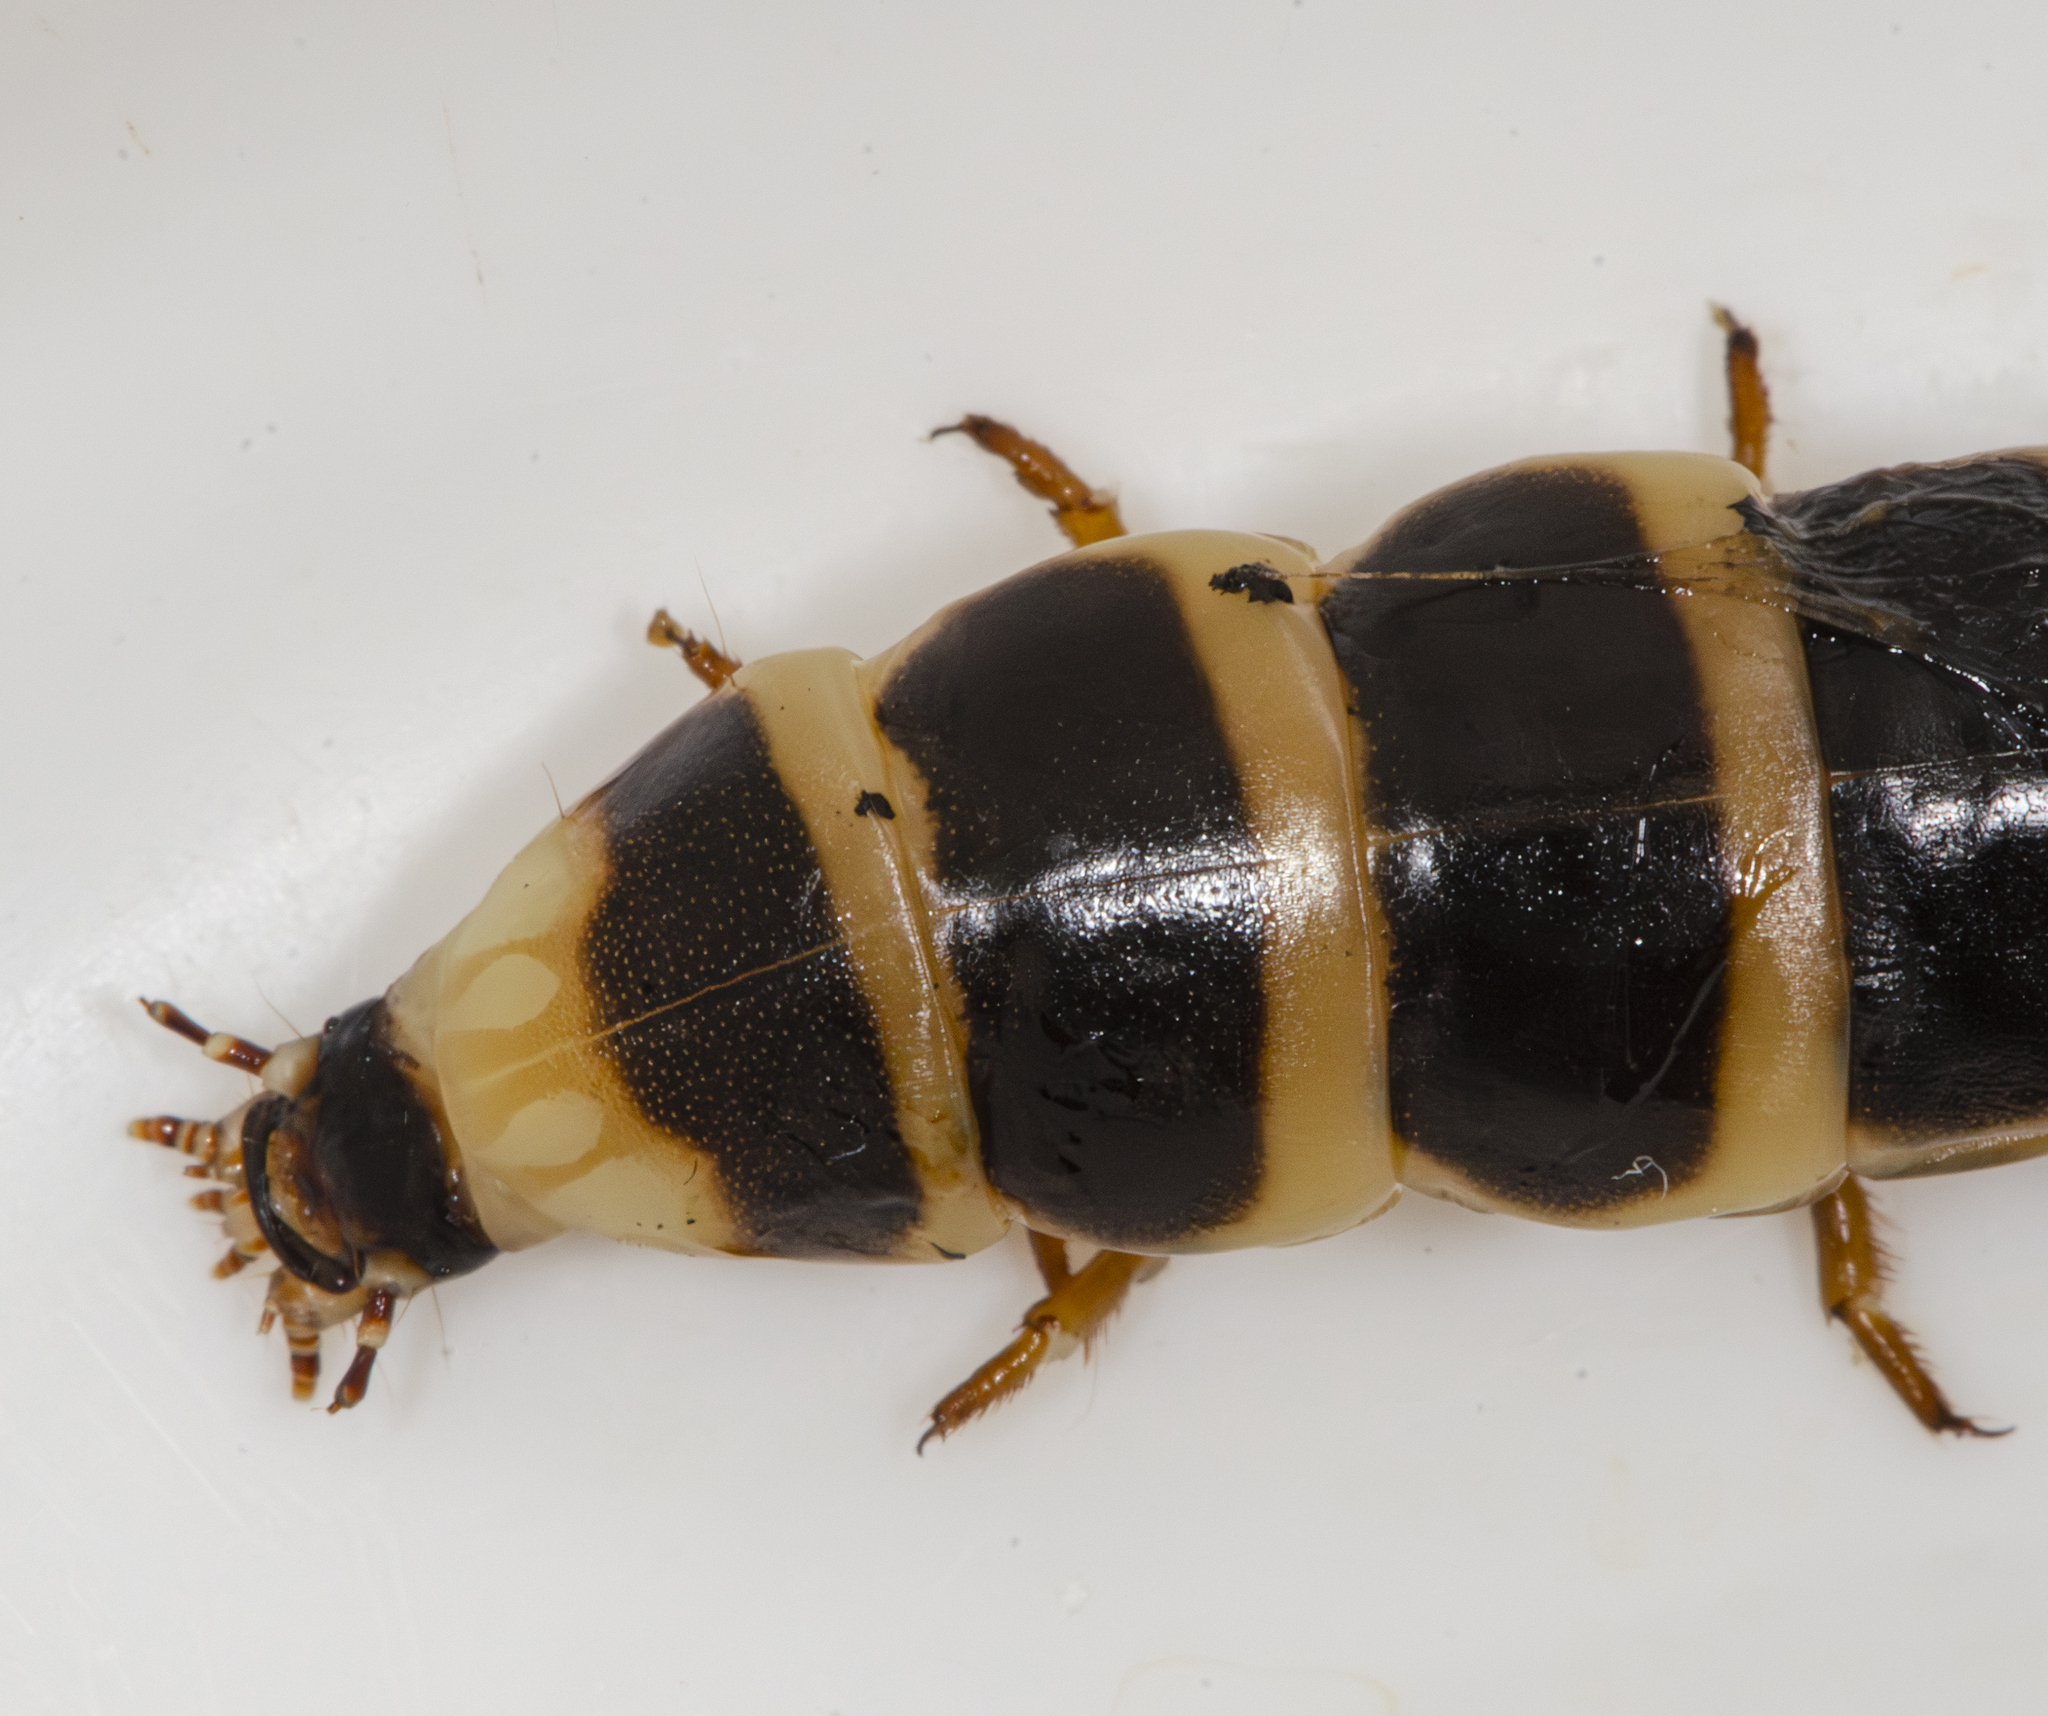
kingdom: Animalia
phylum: Arthropoda
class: Insecta
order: Coleoptera
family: Phengodidae
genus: Zarhipis
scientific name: Zarhipis integripennis
